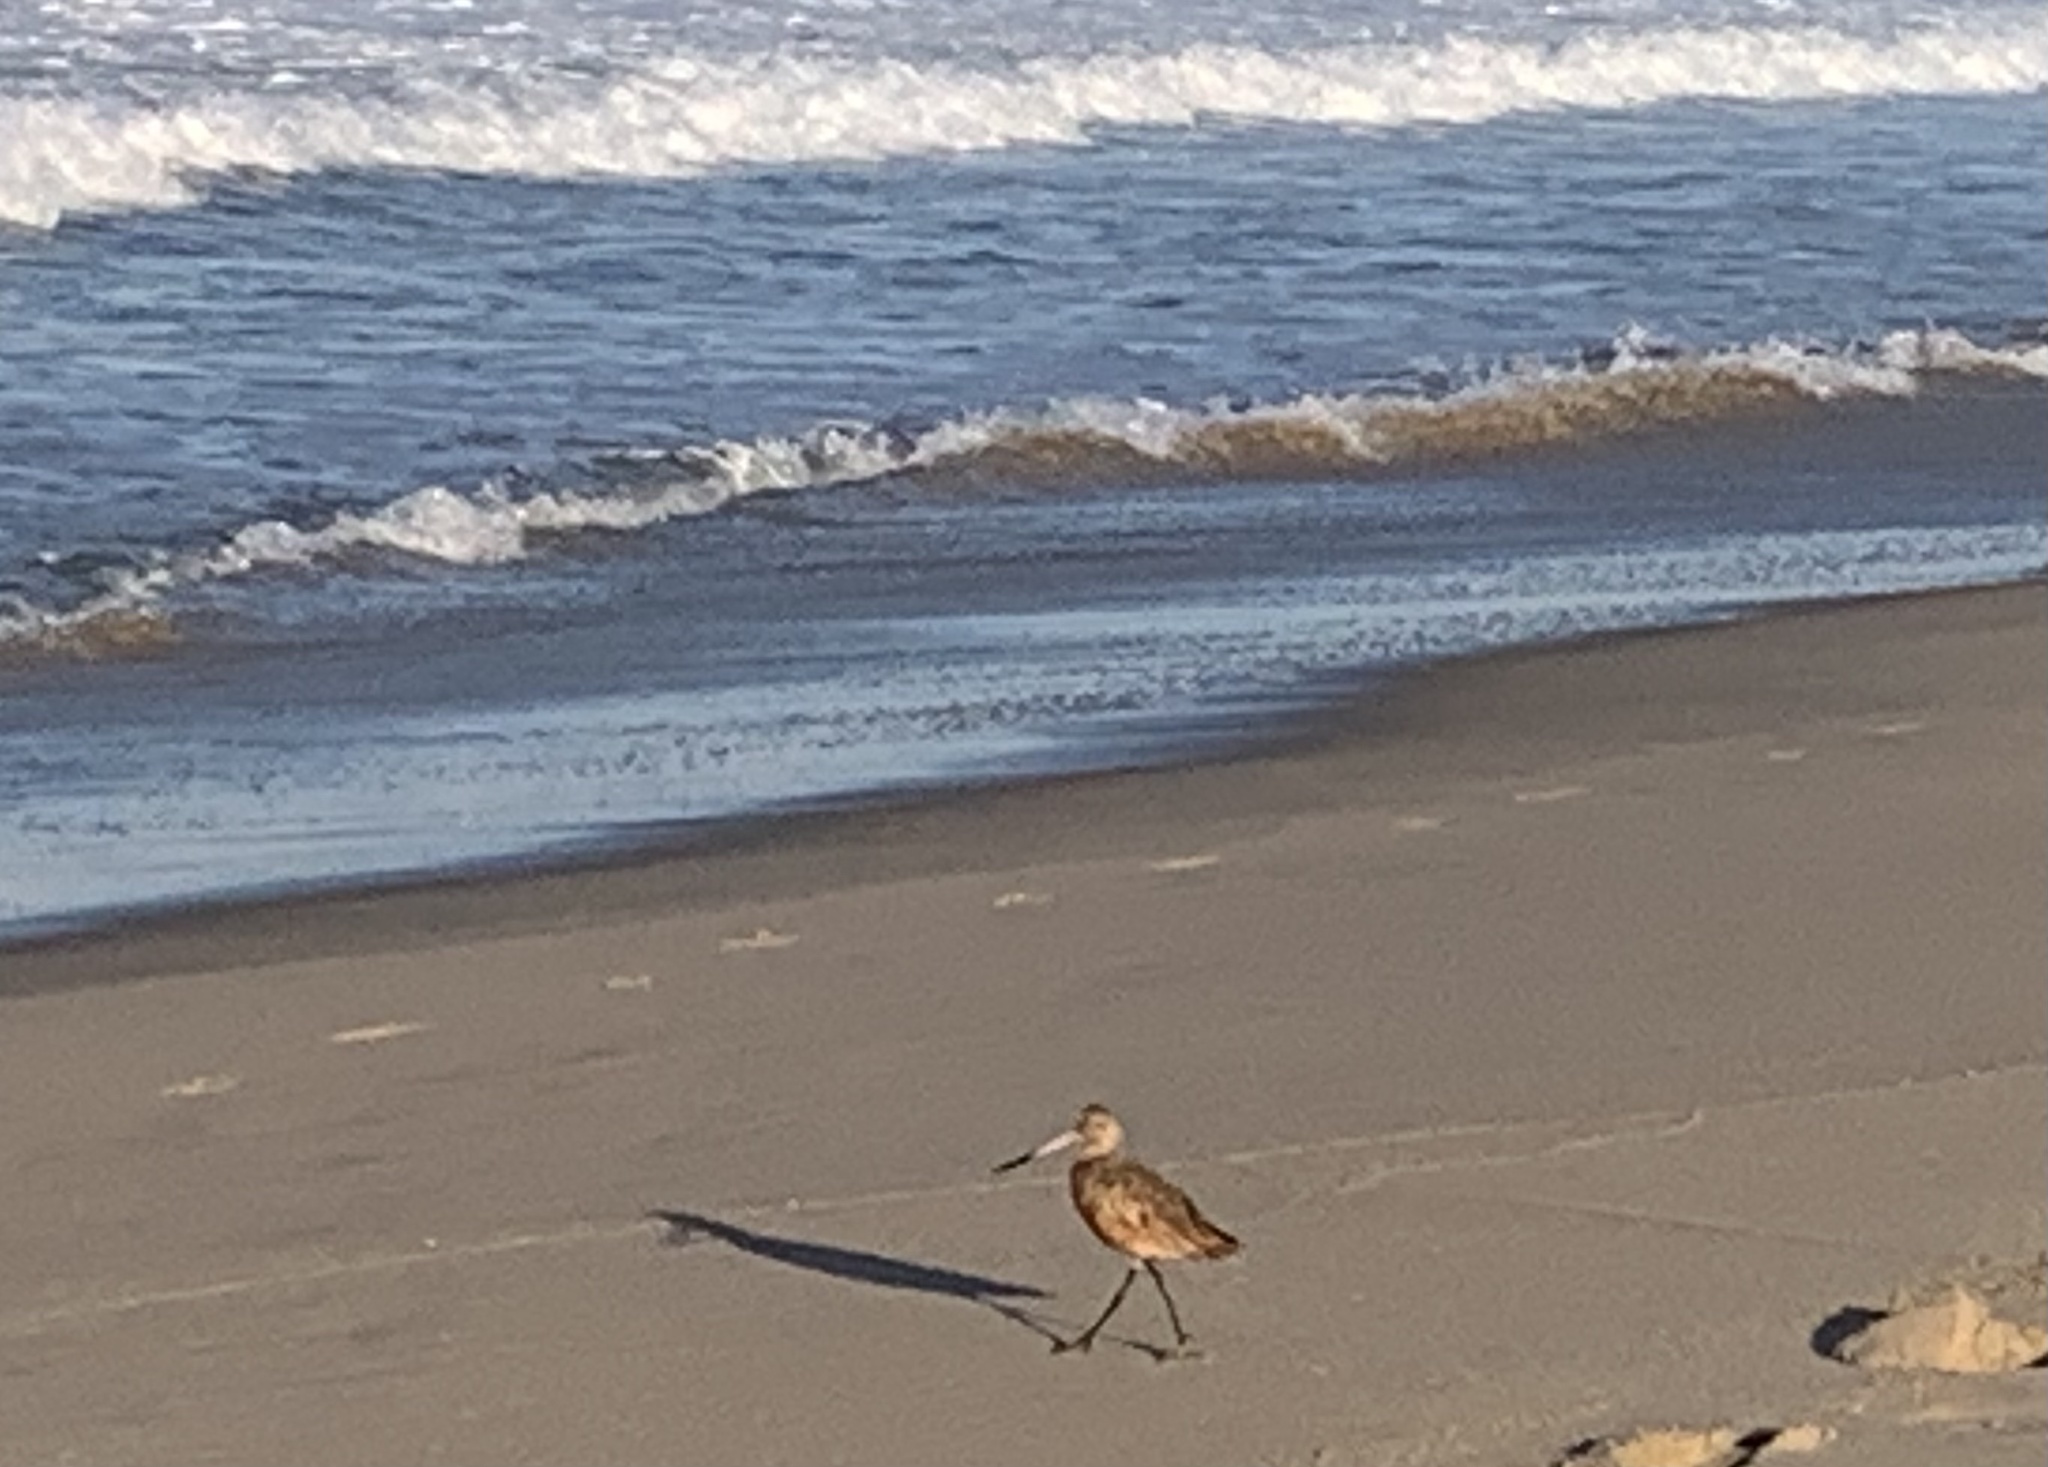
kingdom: Animalia
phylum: Chordata
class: Aves
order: Charadriiformes
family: Scolopacidae
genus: Limosa
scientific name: Limosa fedoa
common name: Marbled godwit
